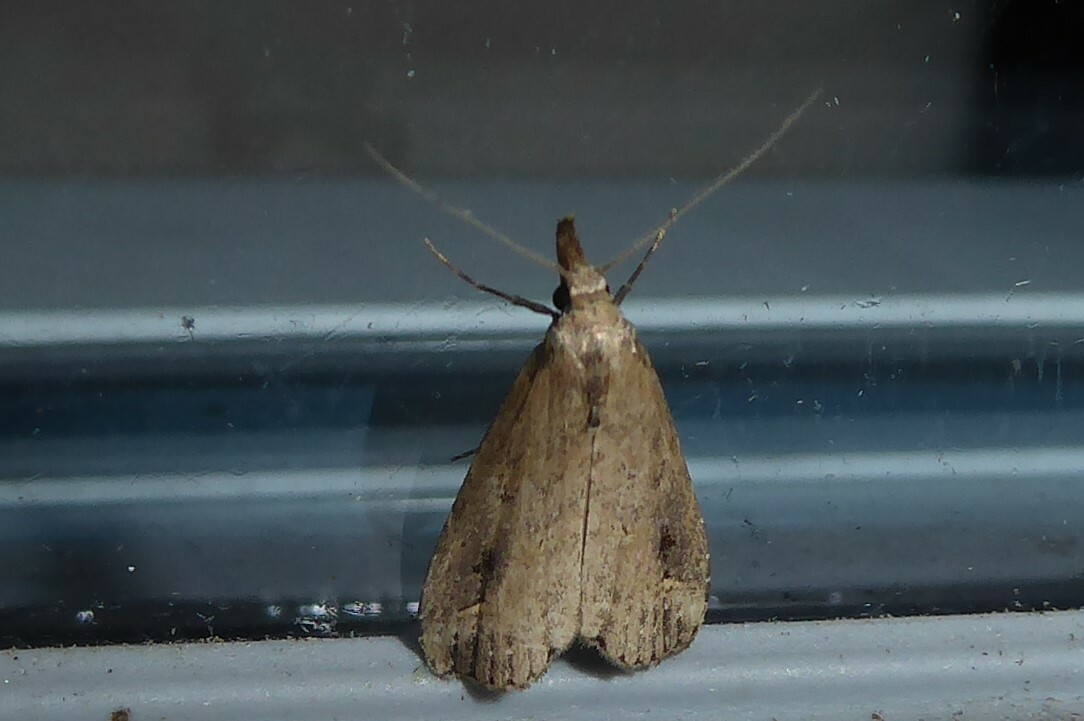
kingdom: Animalia
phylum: Arthropoda
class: Insecta
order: Lepidoptera
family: Erebidae
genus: Schrankia
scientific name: Schrankia costaestrigalis
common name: Pinion-streaked snout
